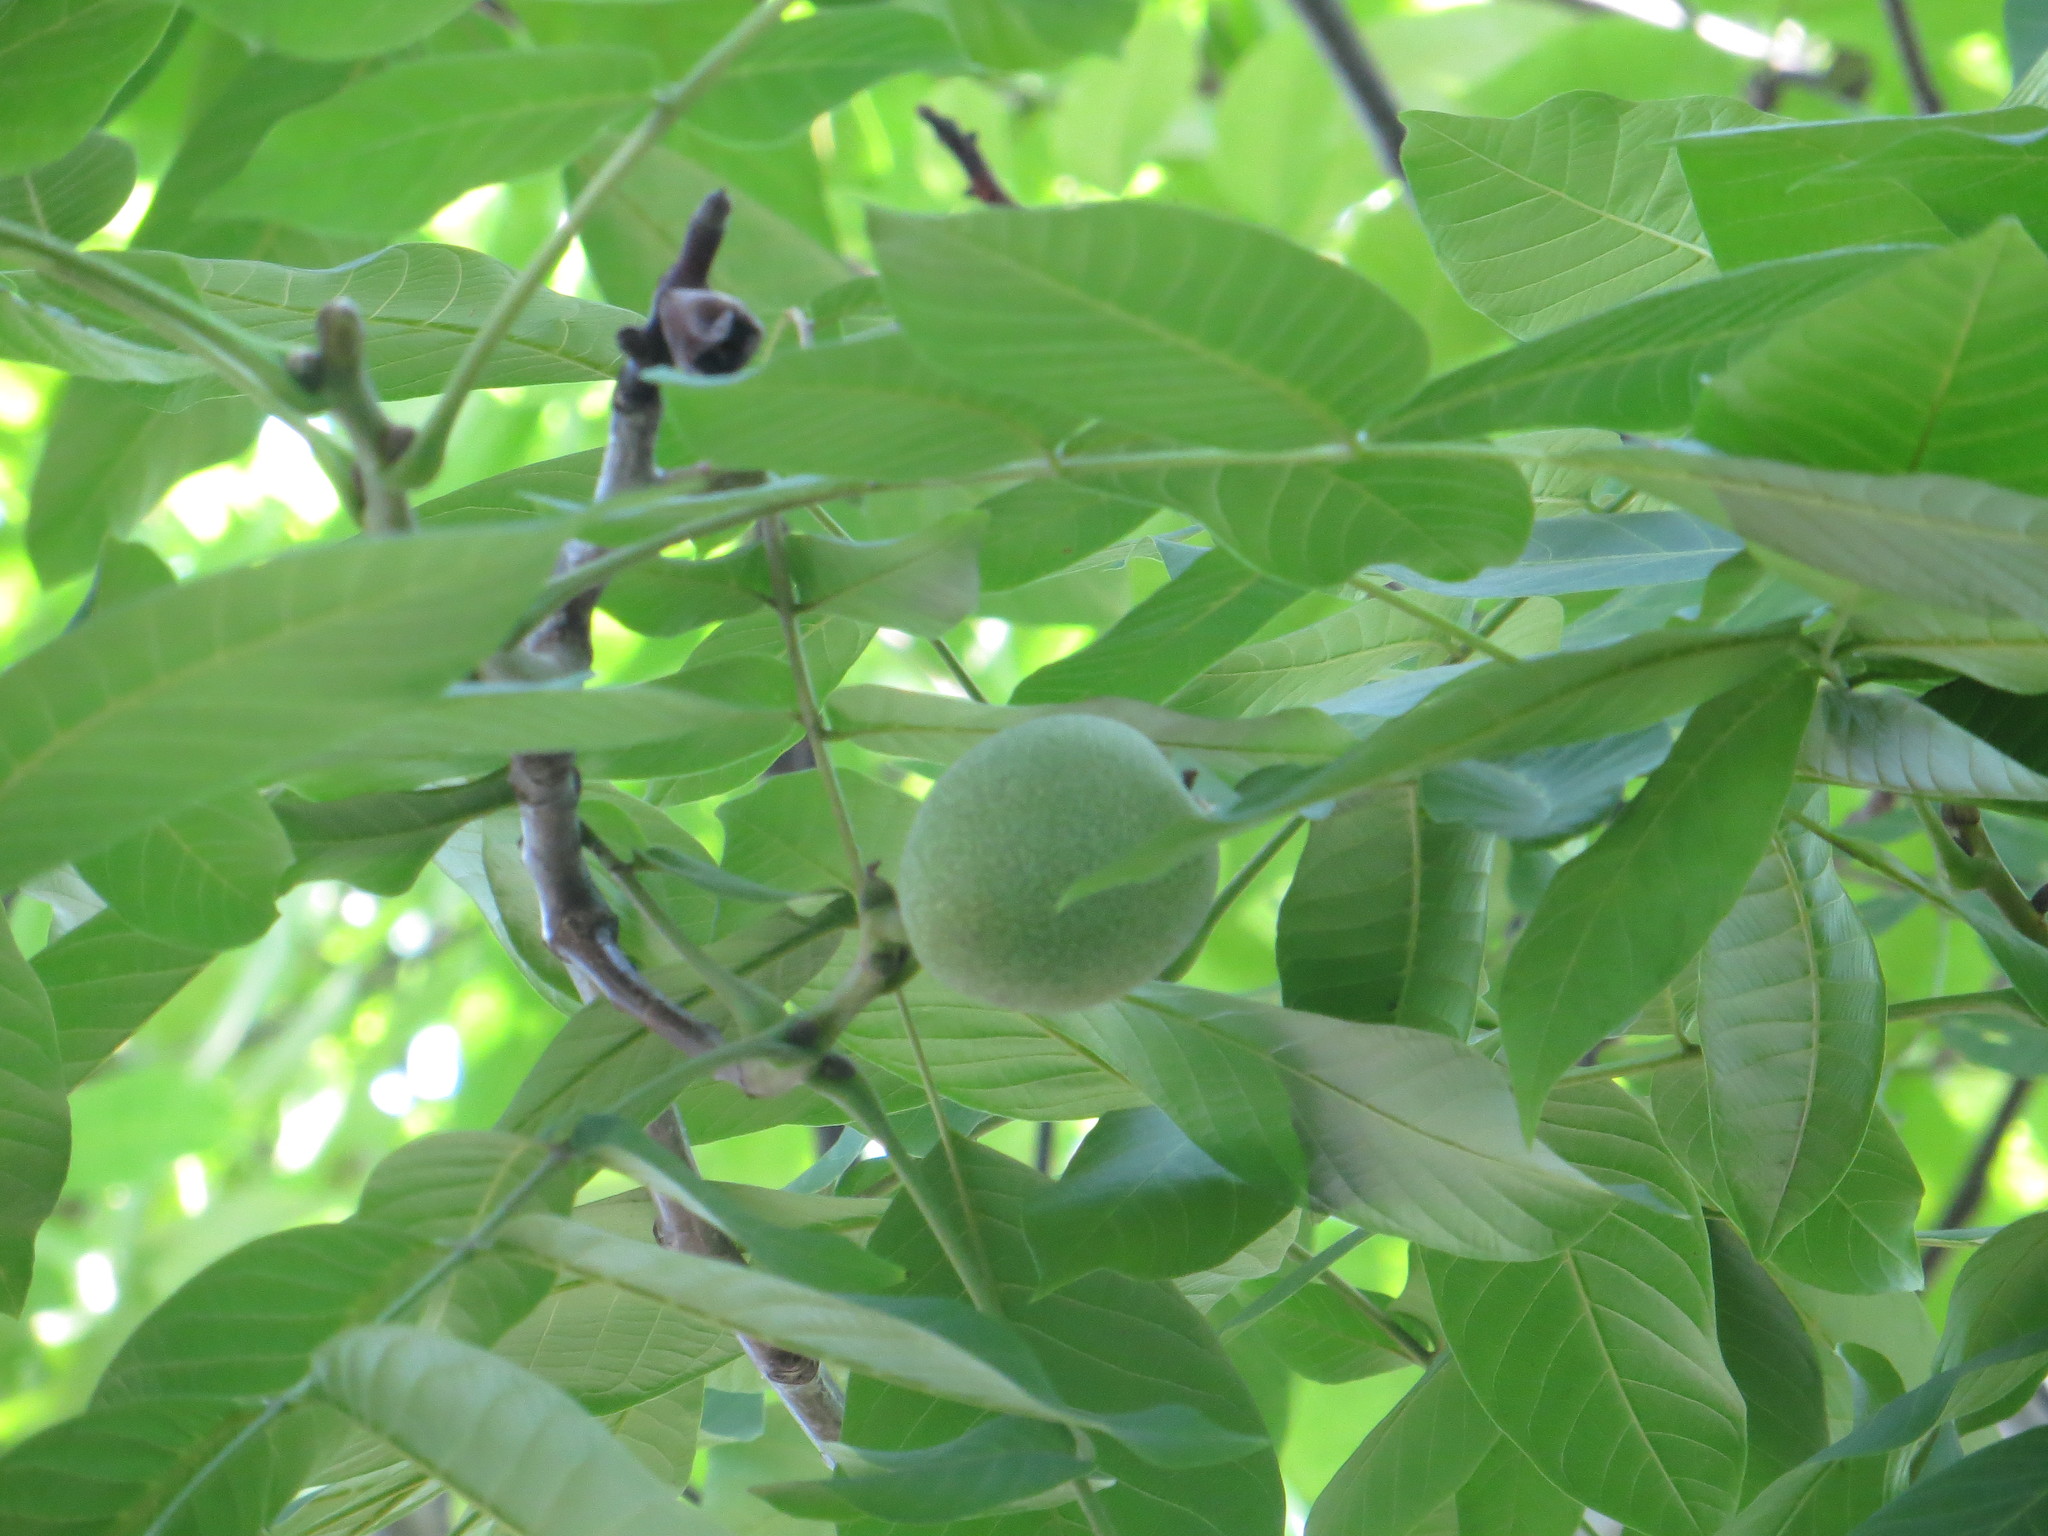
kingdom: Plantae
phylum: Tracheophyta
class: Magnoliopsida
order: Fagales
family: Juglandaceae
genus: Juglans
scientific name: Juglans regia
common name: Walnut
